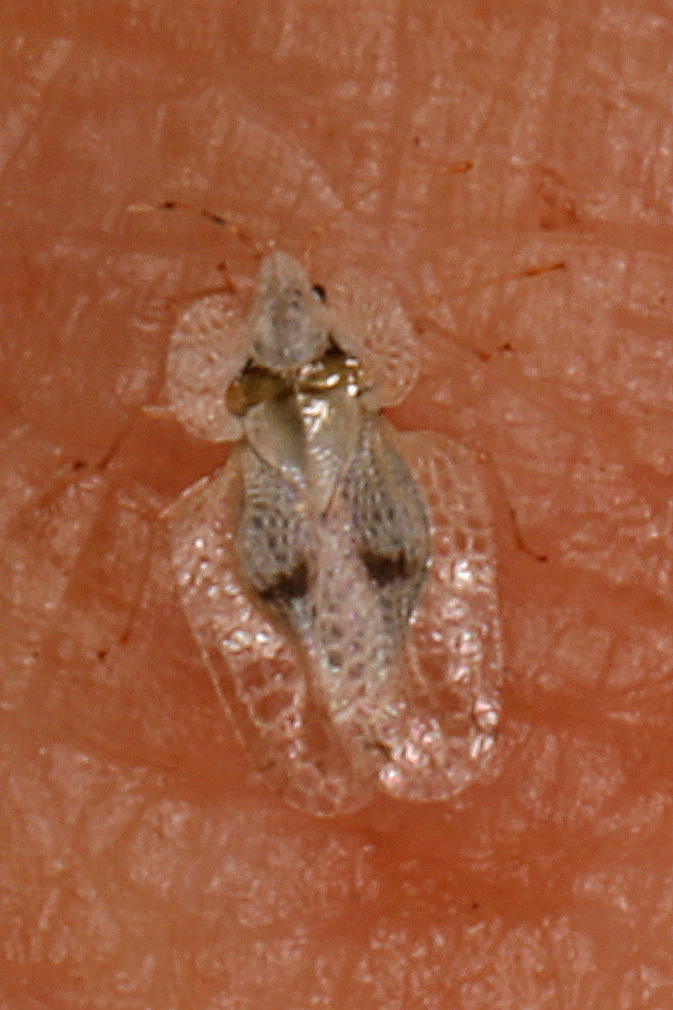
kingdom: Animalia
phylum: Arthropoda
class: Insecta
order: Hemiptera
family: Tingidae
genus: Corythucha
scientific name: Corythucha ciliata
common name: Sycamore lace bug
